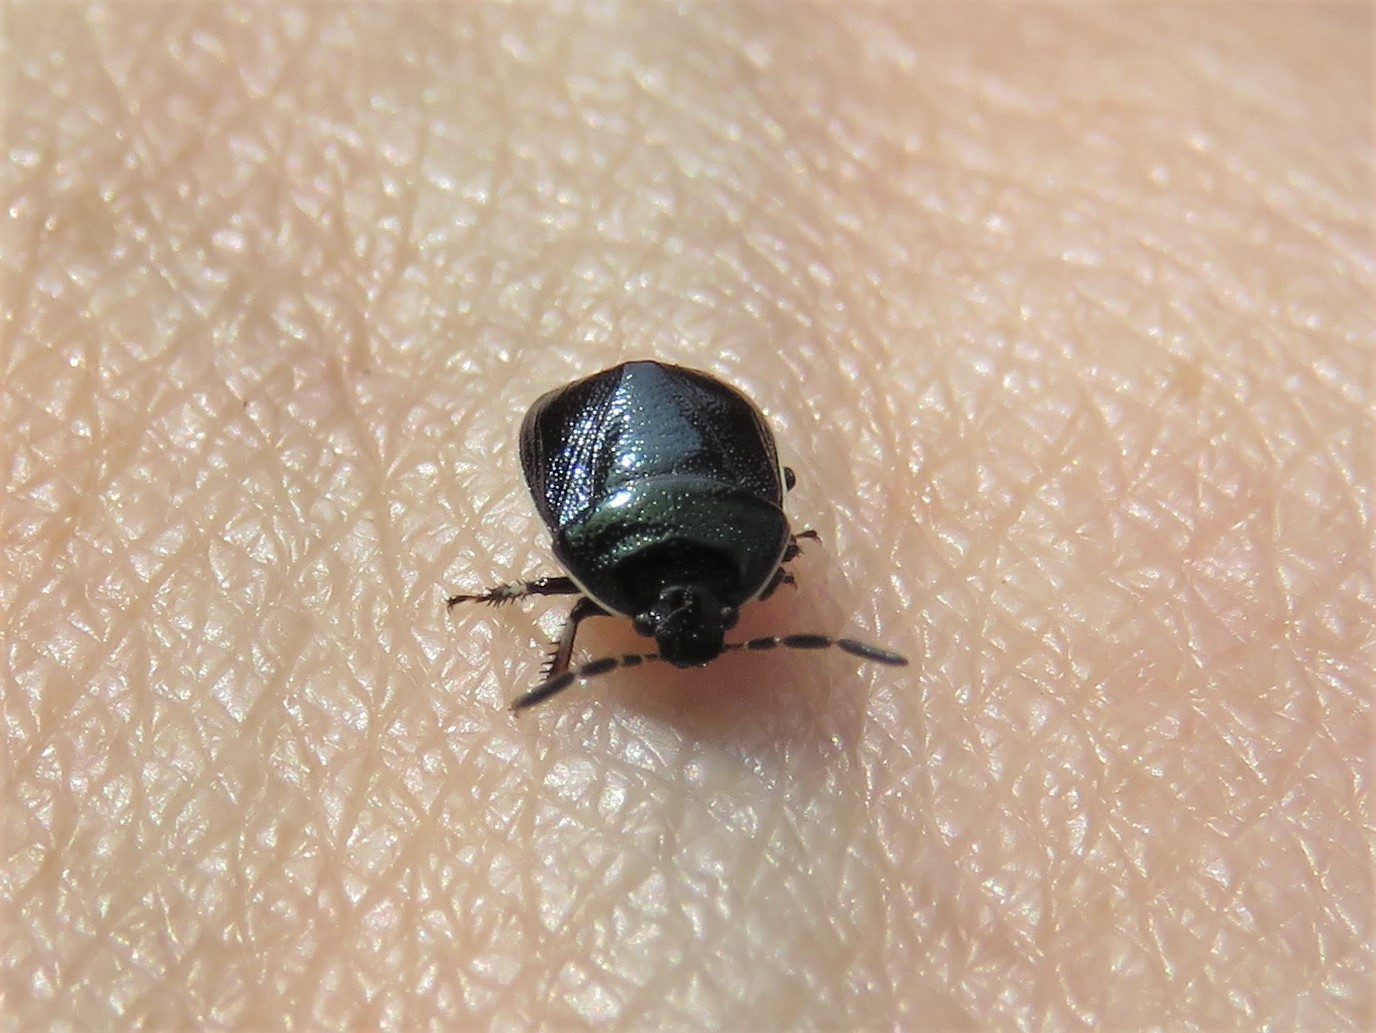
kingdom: Animalia
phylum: Arthropoda
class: Insecta
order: Hemiptera
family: Cydnidae
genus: Sehirus
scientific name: Sehirus cinctus
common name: White-margined burrower bug
